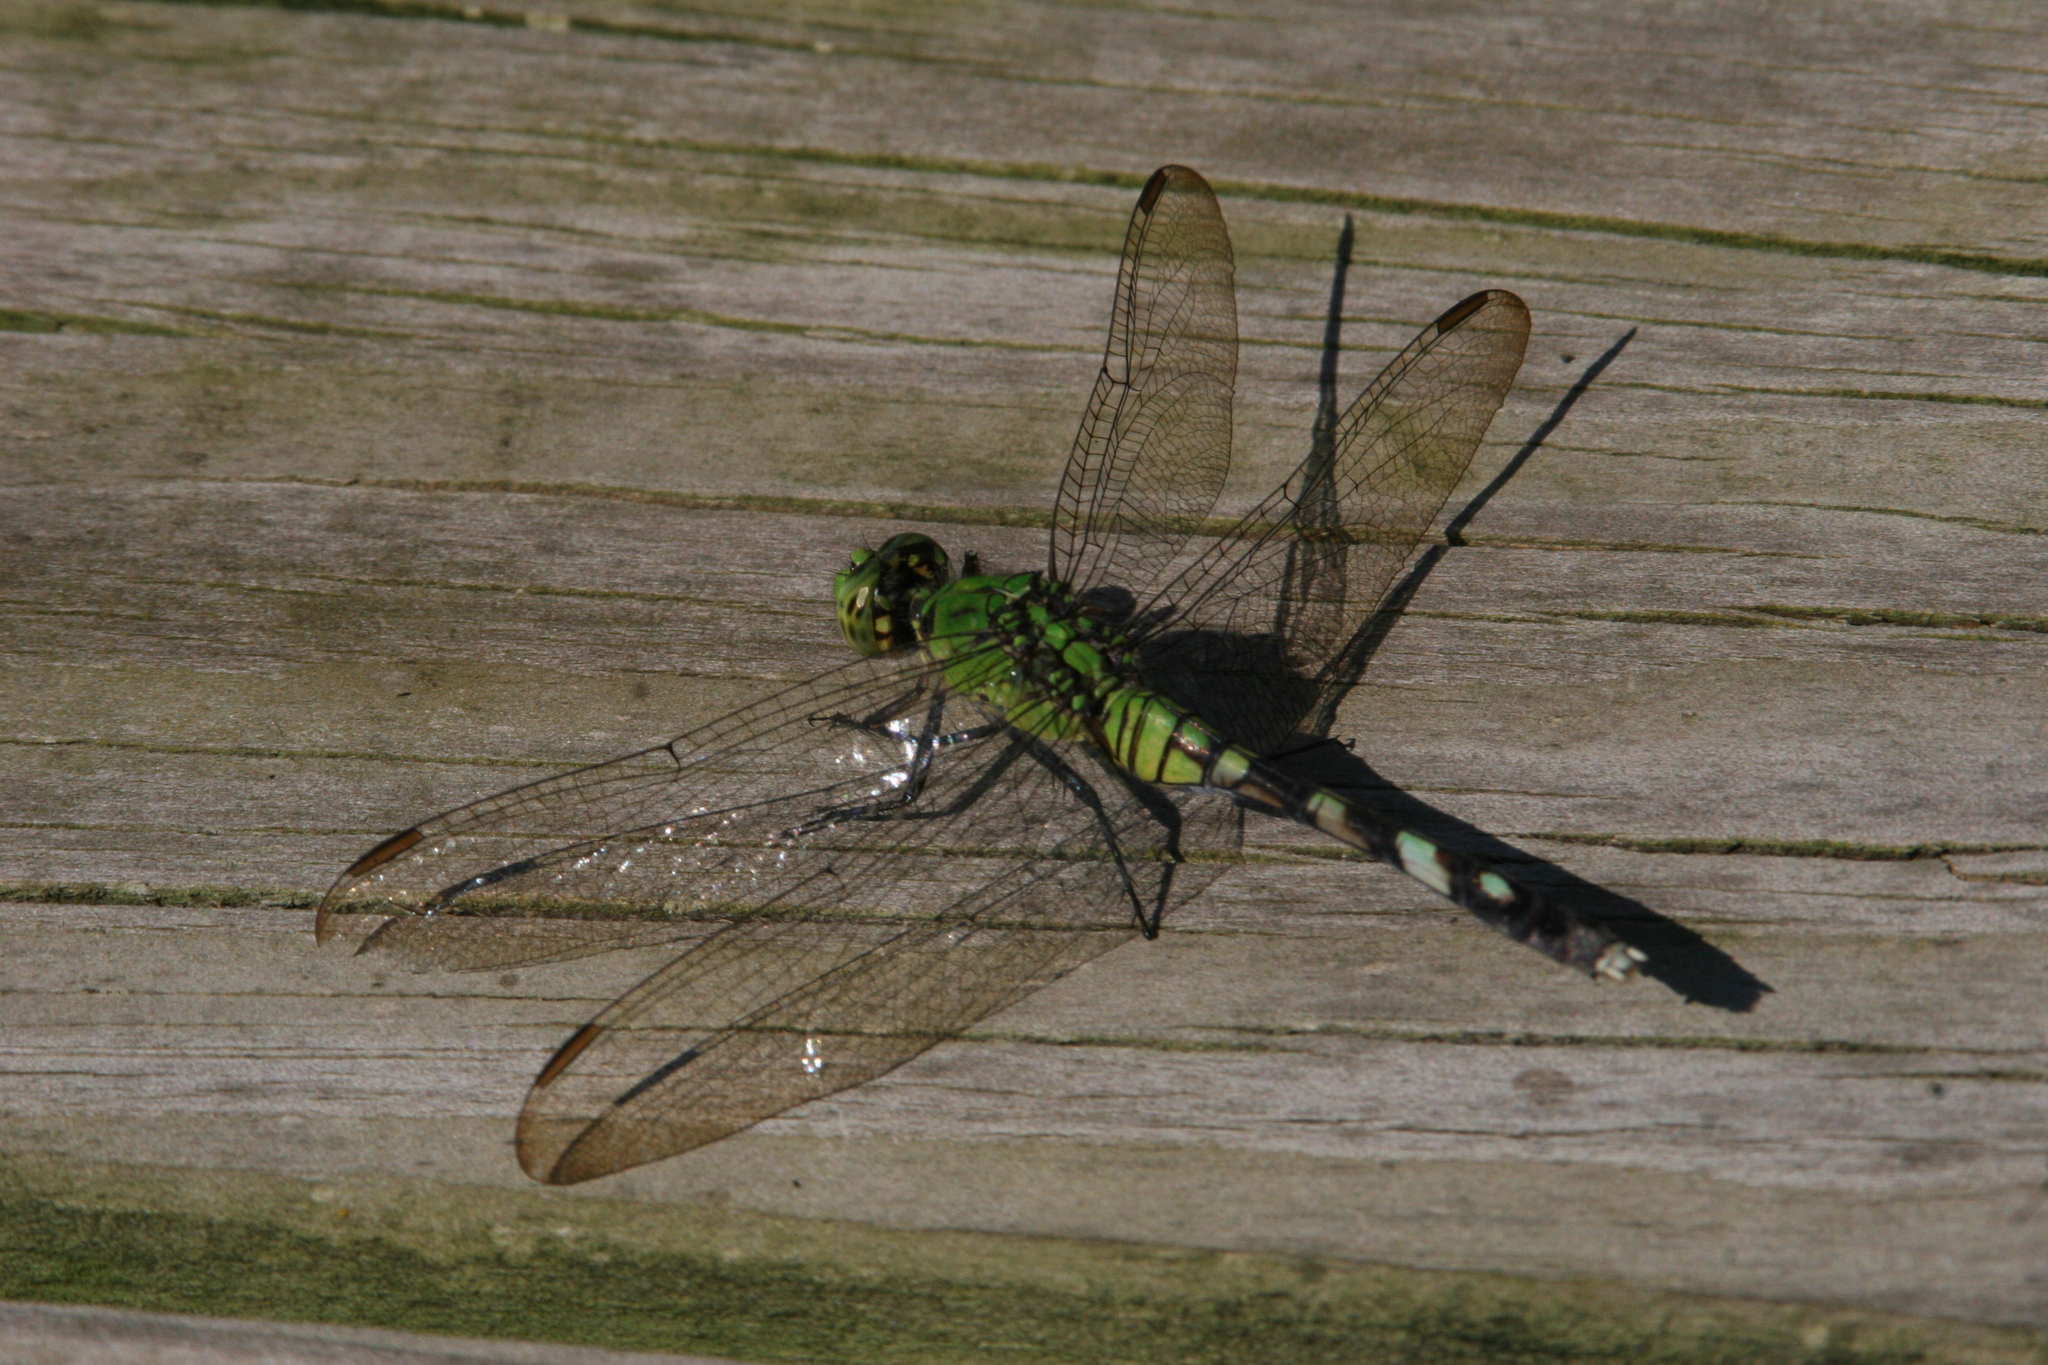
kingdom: Animalia
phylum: Arthropoda
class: Insecta
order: Odonata
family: Libellulidae
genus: Erythemis
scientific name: Erythemis simplicicollis
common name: Eastern pondhawk
